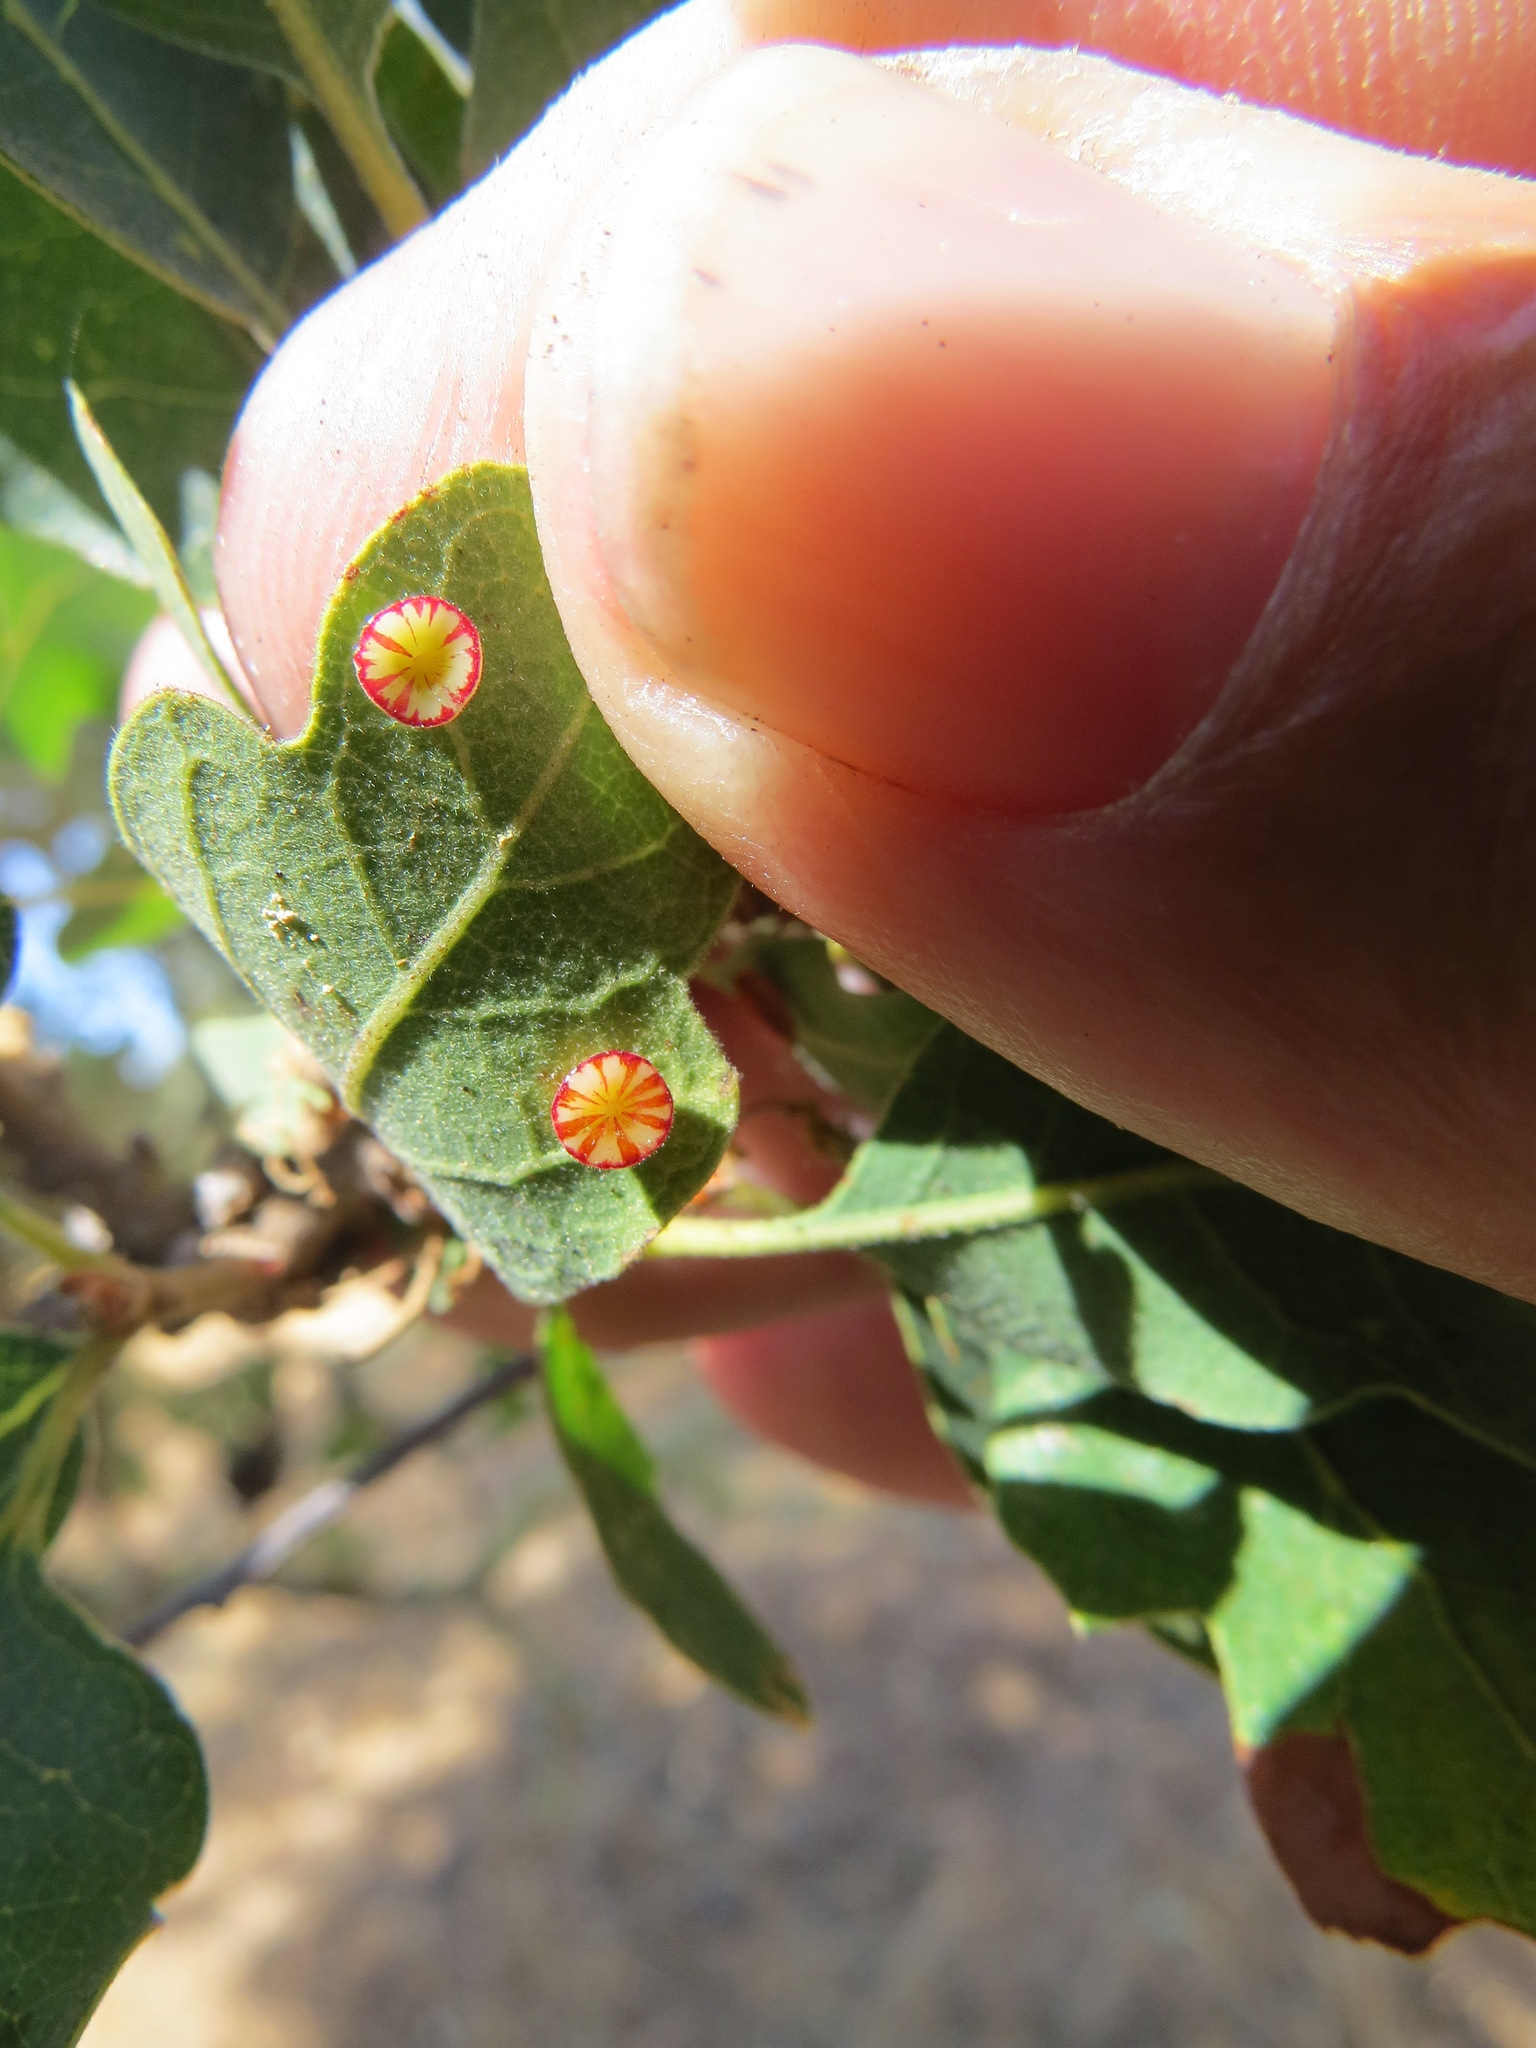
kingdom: Animalia
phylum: Arthropoda
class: Insecta
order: Hymenoptera
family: Cynipidae
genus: Andricus
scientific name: Andricus
